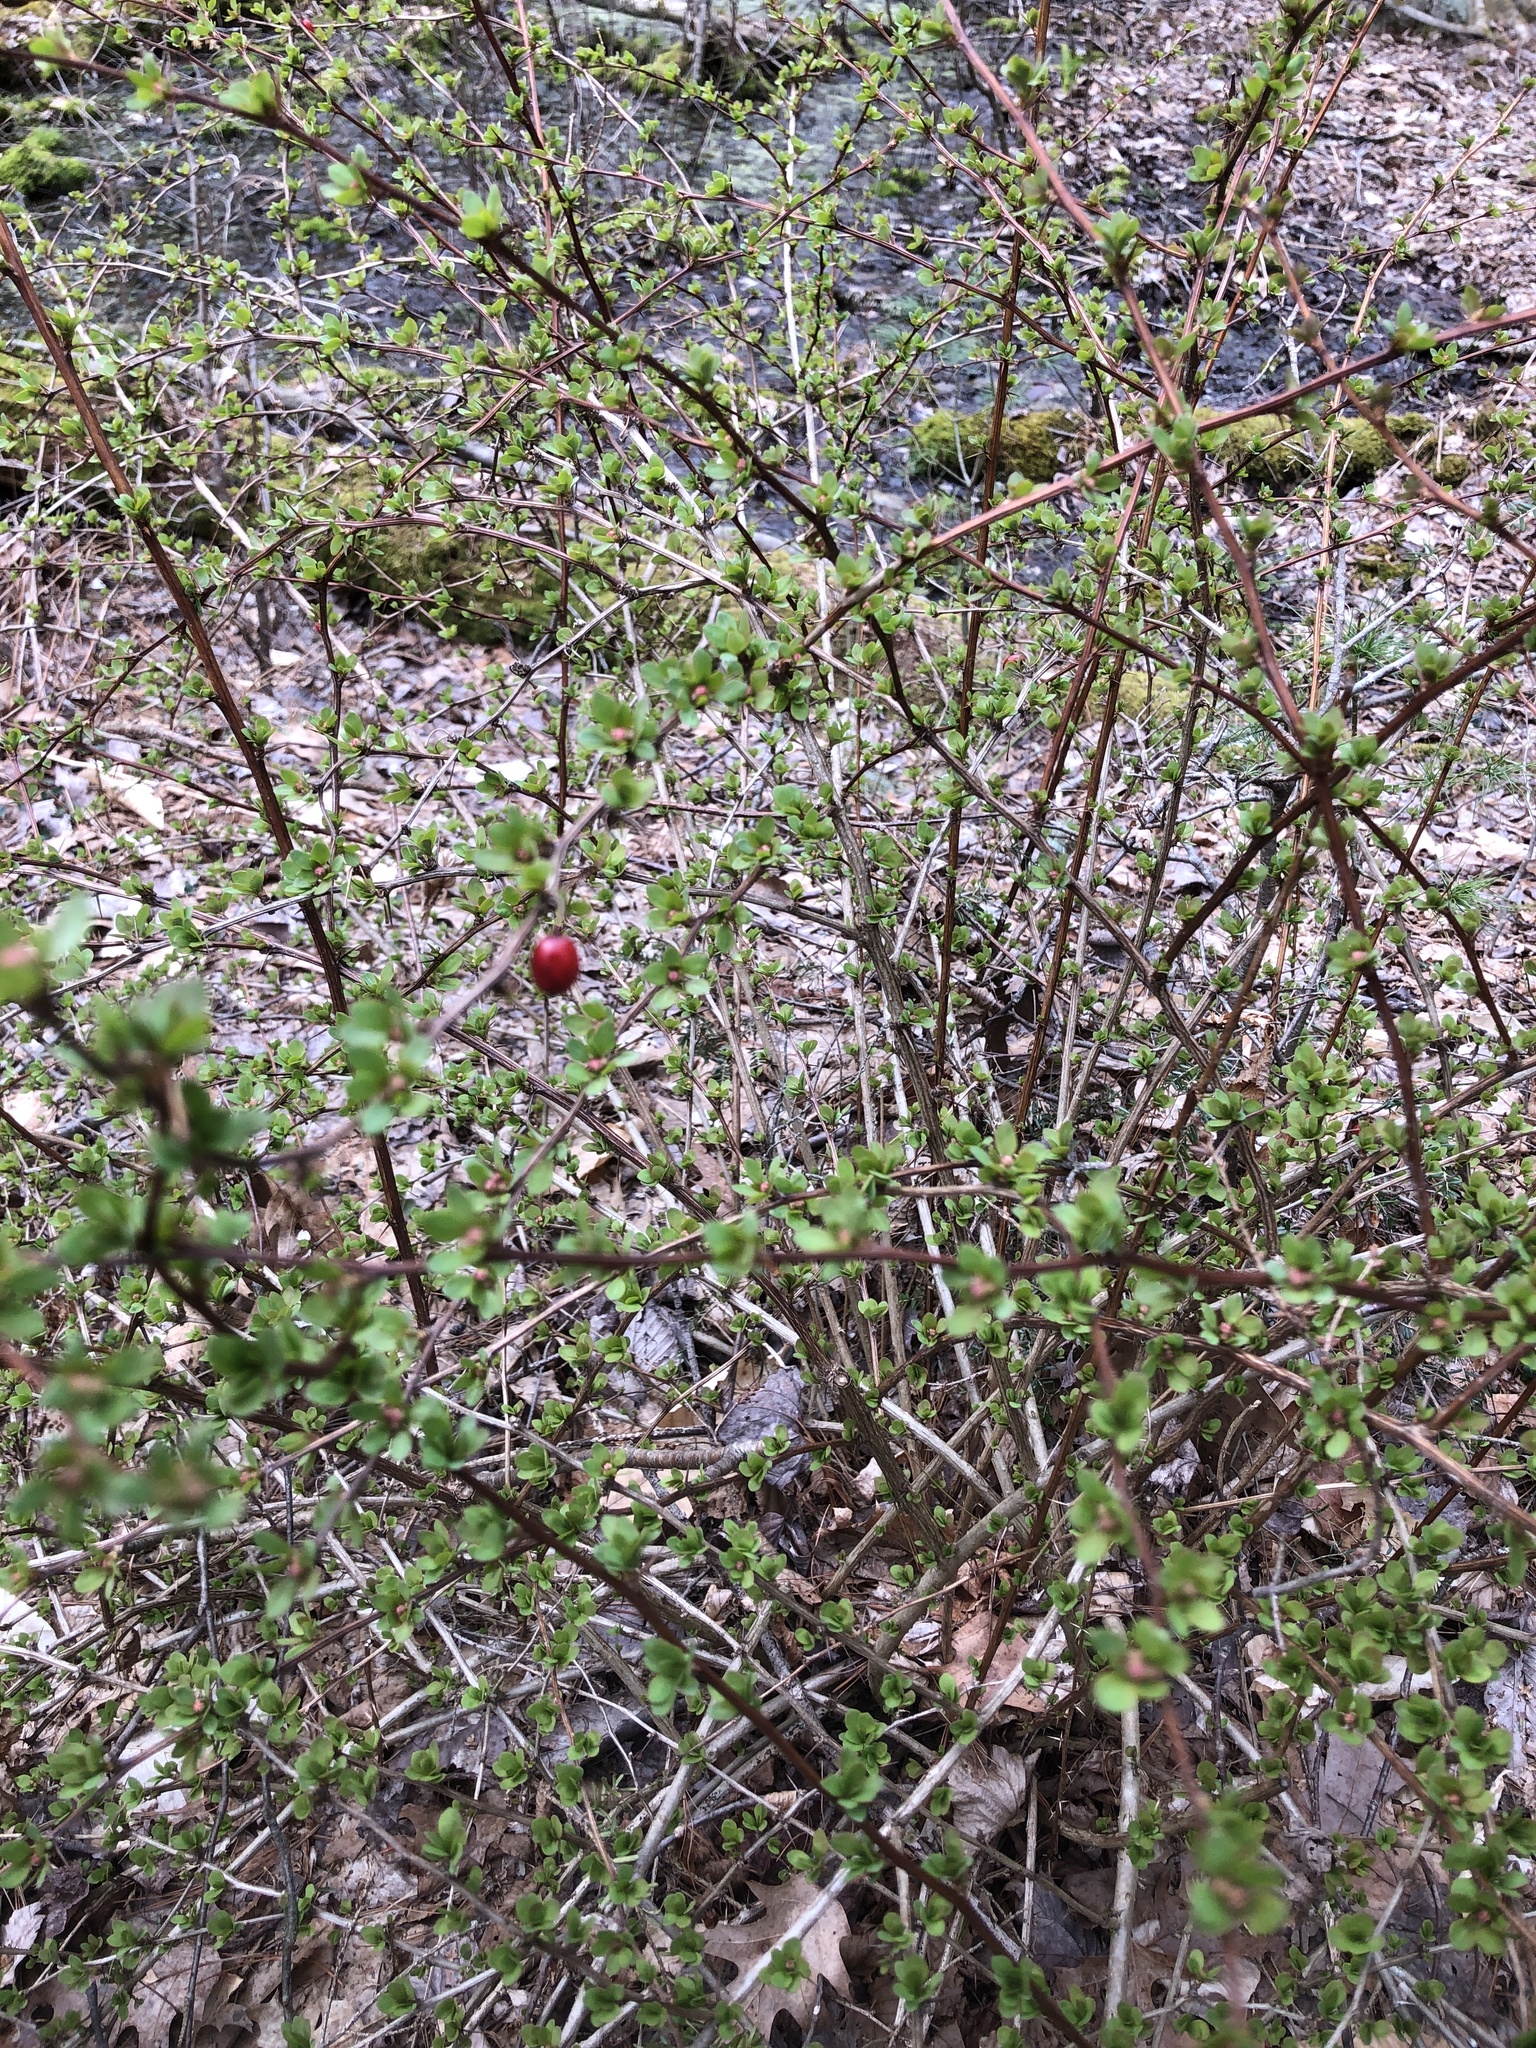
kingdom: Plantae
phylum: Tracheophyta
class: Magnoliopsida
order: Ranunculales
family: Berberidaceae
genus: Berberis
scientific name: Berberis thunbergii
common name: Japanese barberry
